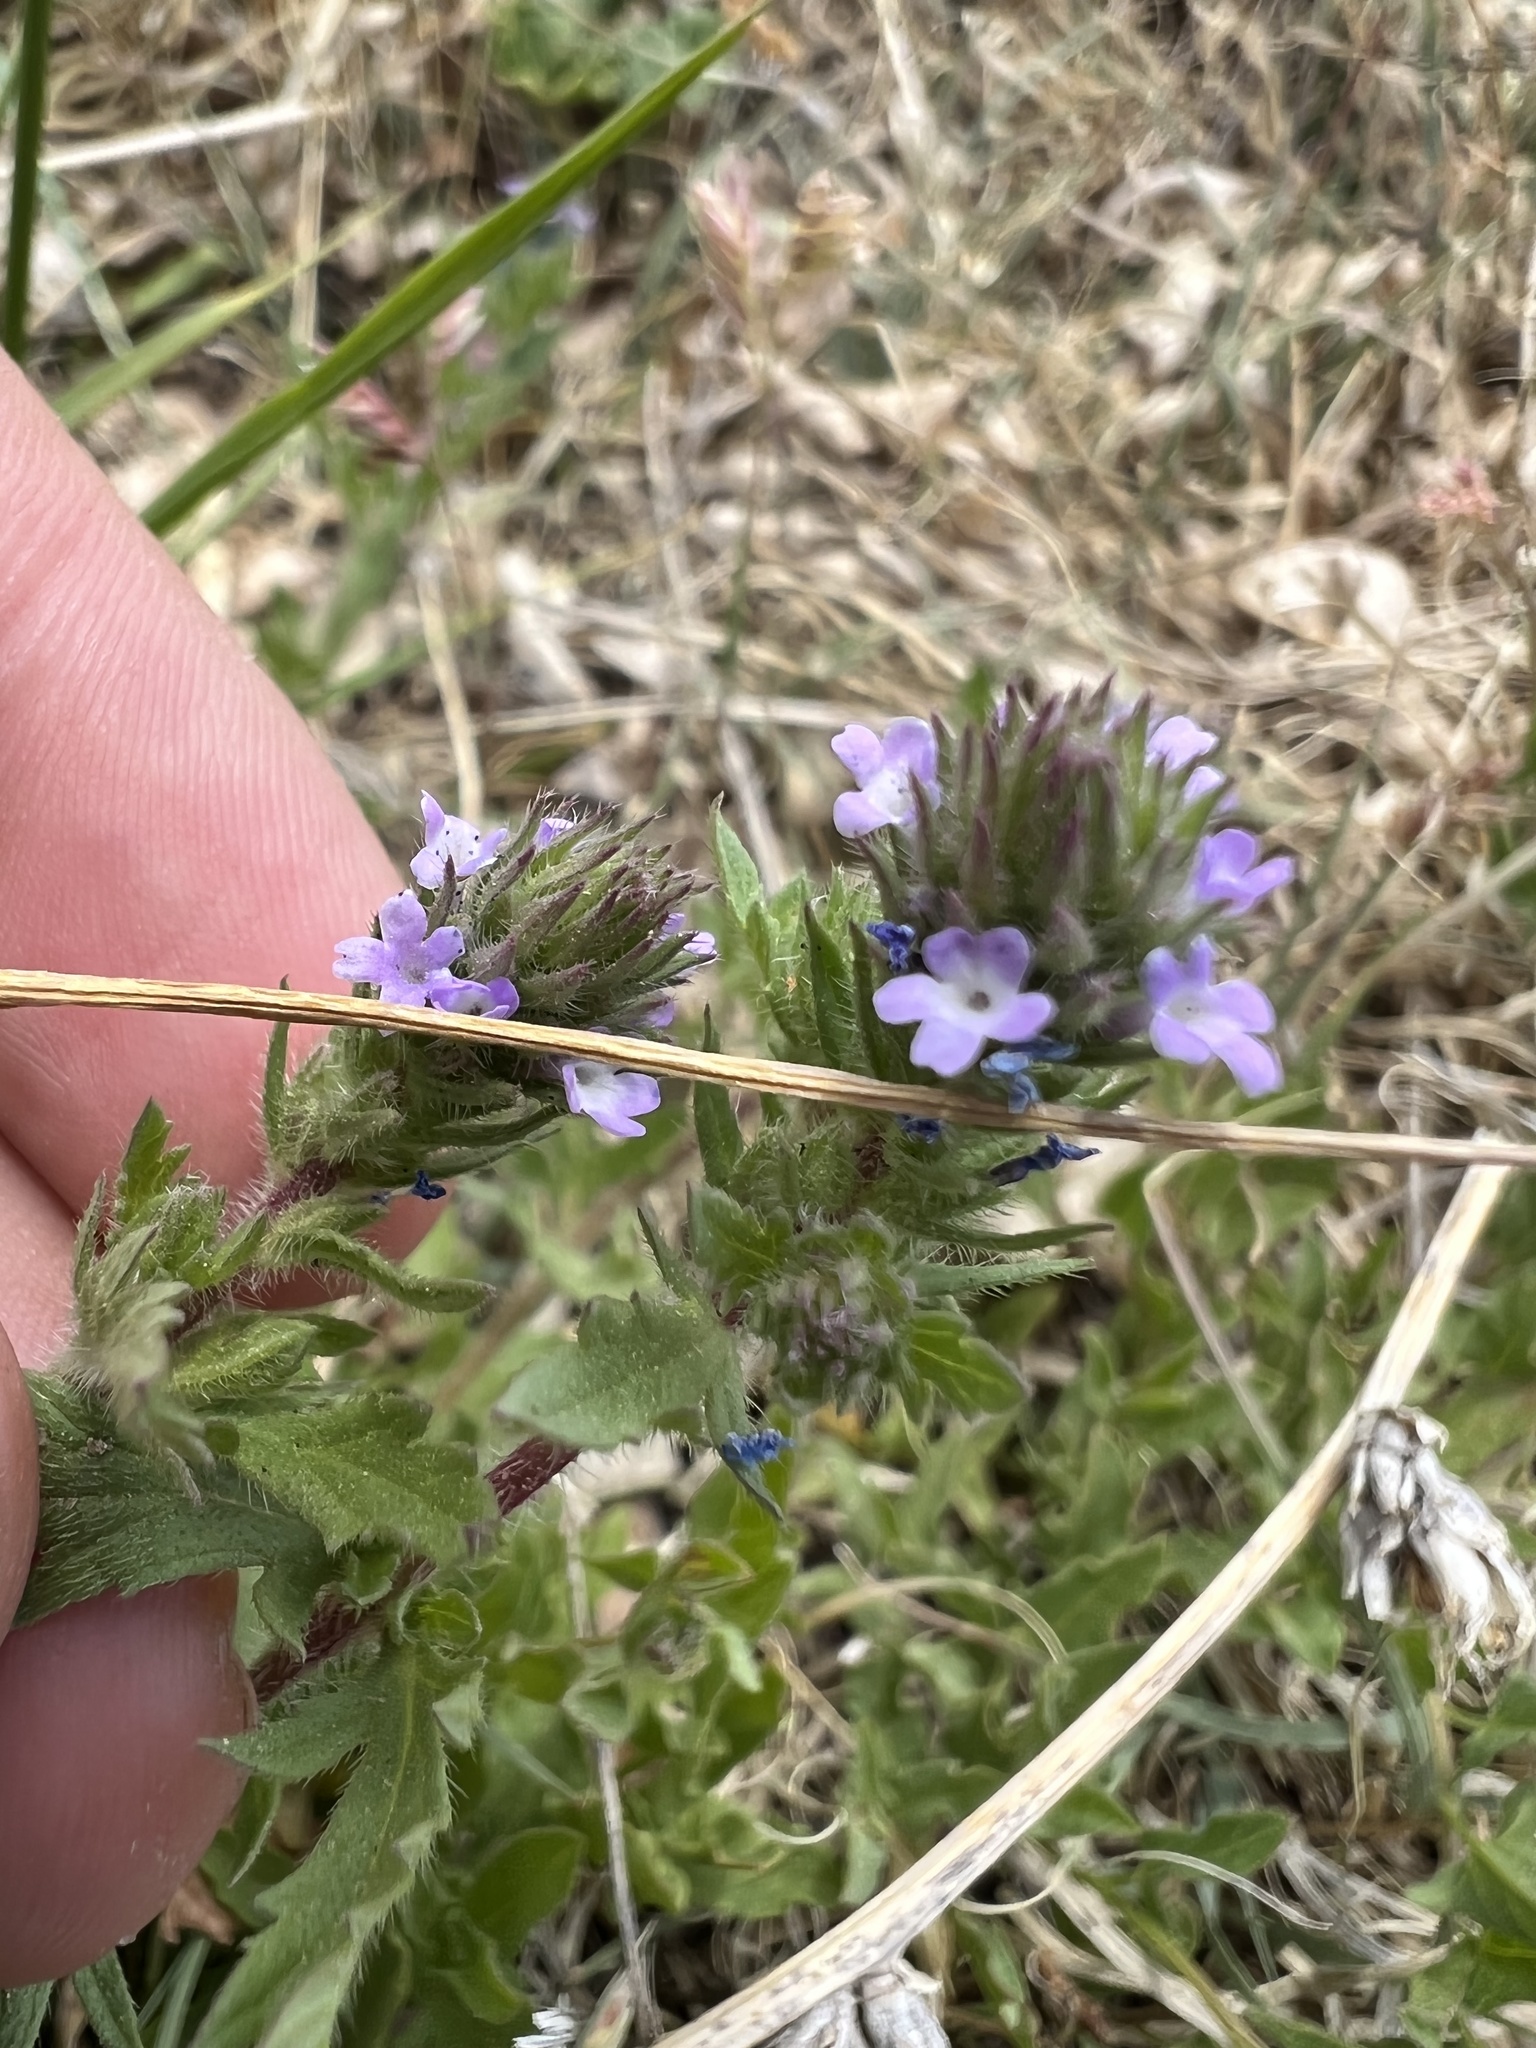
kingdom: Plantae
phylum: Tracheophyta
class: Magnoliopsida
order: Lamiales
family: Verbenaceae
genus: Verbena
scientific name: Verbena bracteata
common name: Bracted vervain
